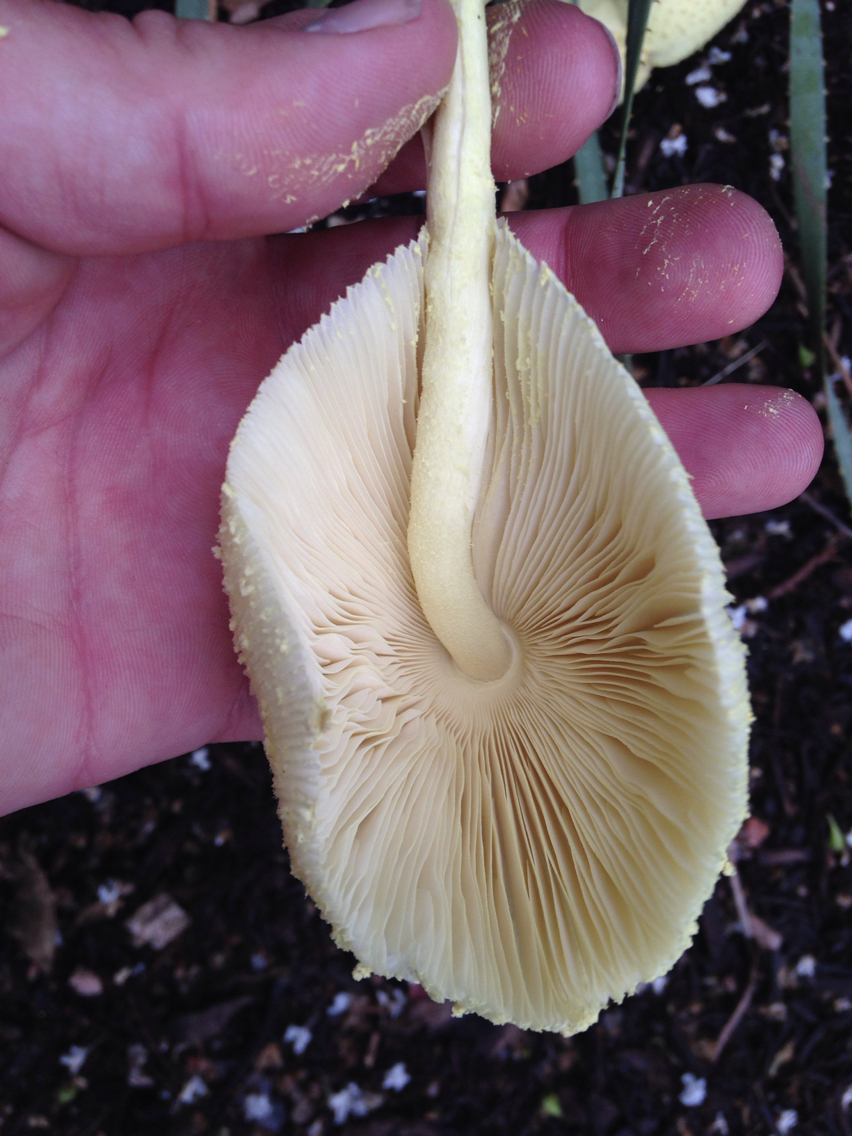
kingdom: Fungi
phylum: Basidiomycota
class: Agaricomycetes
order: Agaricales
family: Agaricaceae
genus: Leucocoprinus
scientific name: Leucocoprinus birnbaumii
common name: Plantpot dapperling
